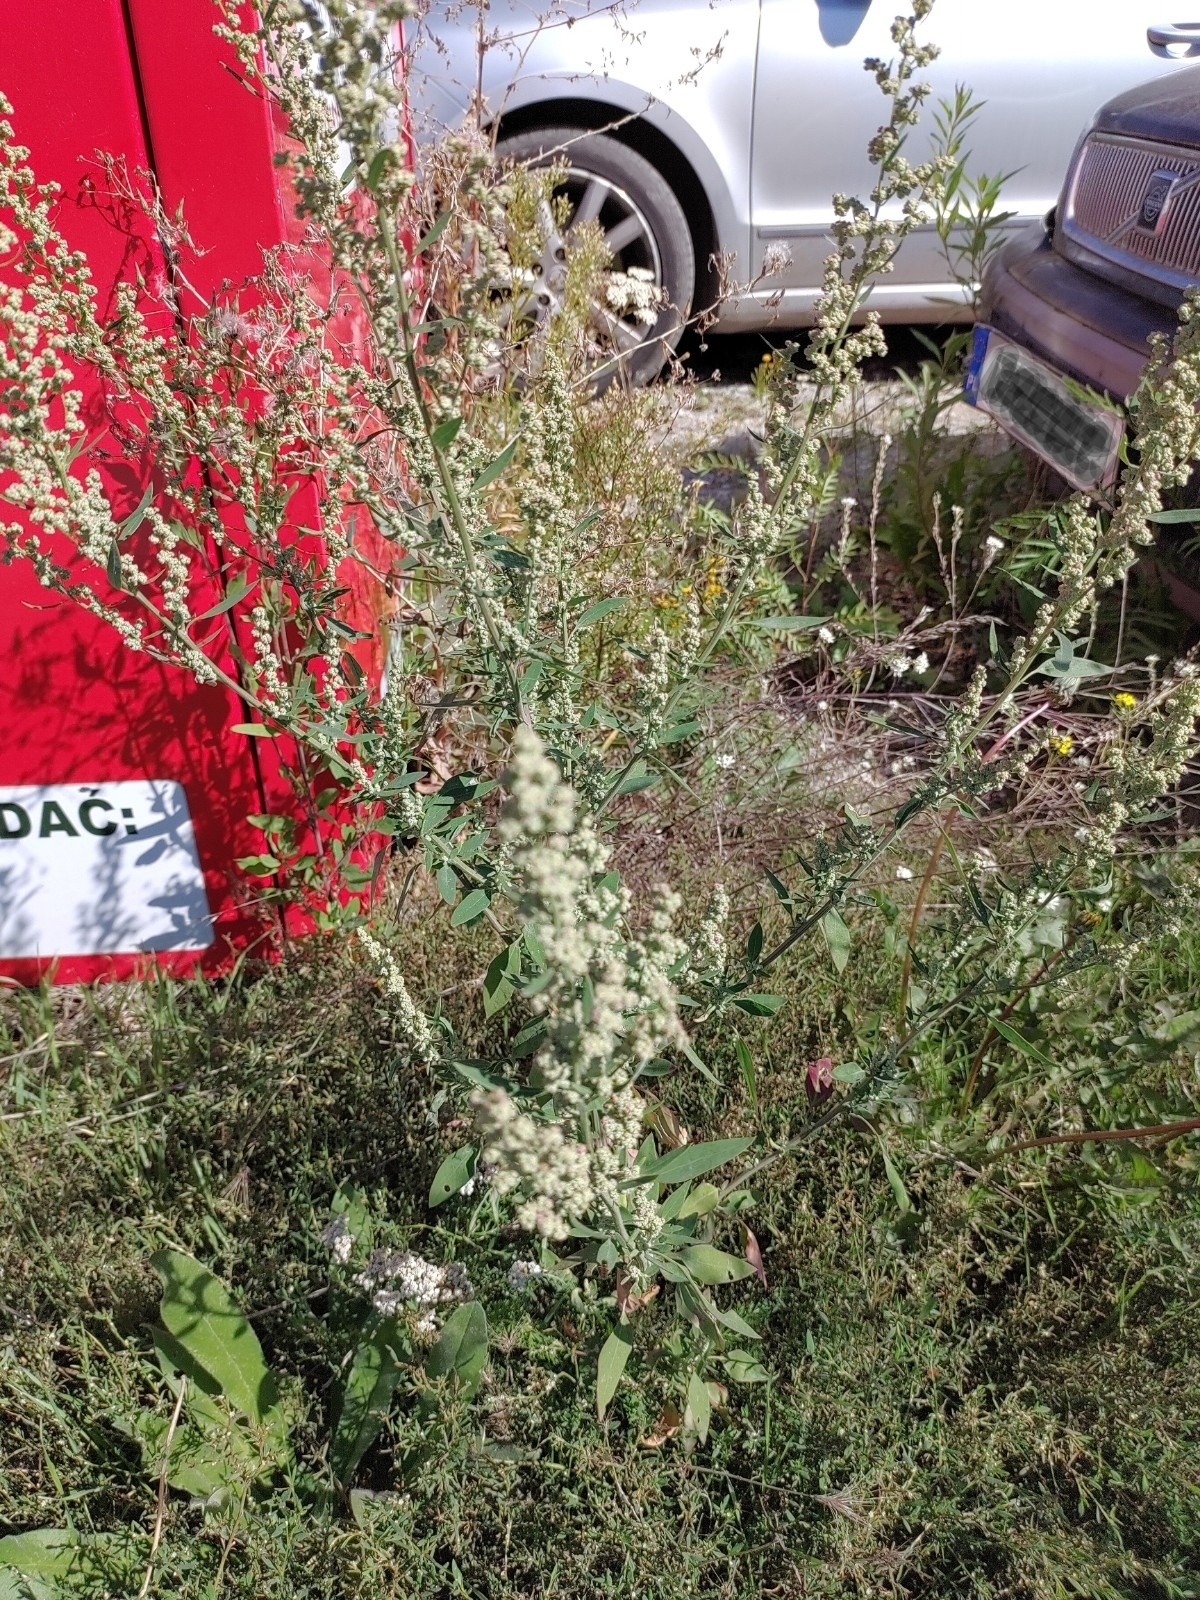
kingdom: Plantae
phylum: Tracheophyta
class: Magnoliopsida
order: Caryophyllales
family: Amaranthaceae
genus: Chenopodium
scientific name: Chenopodium album
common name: Fat-hen
